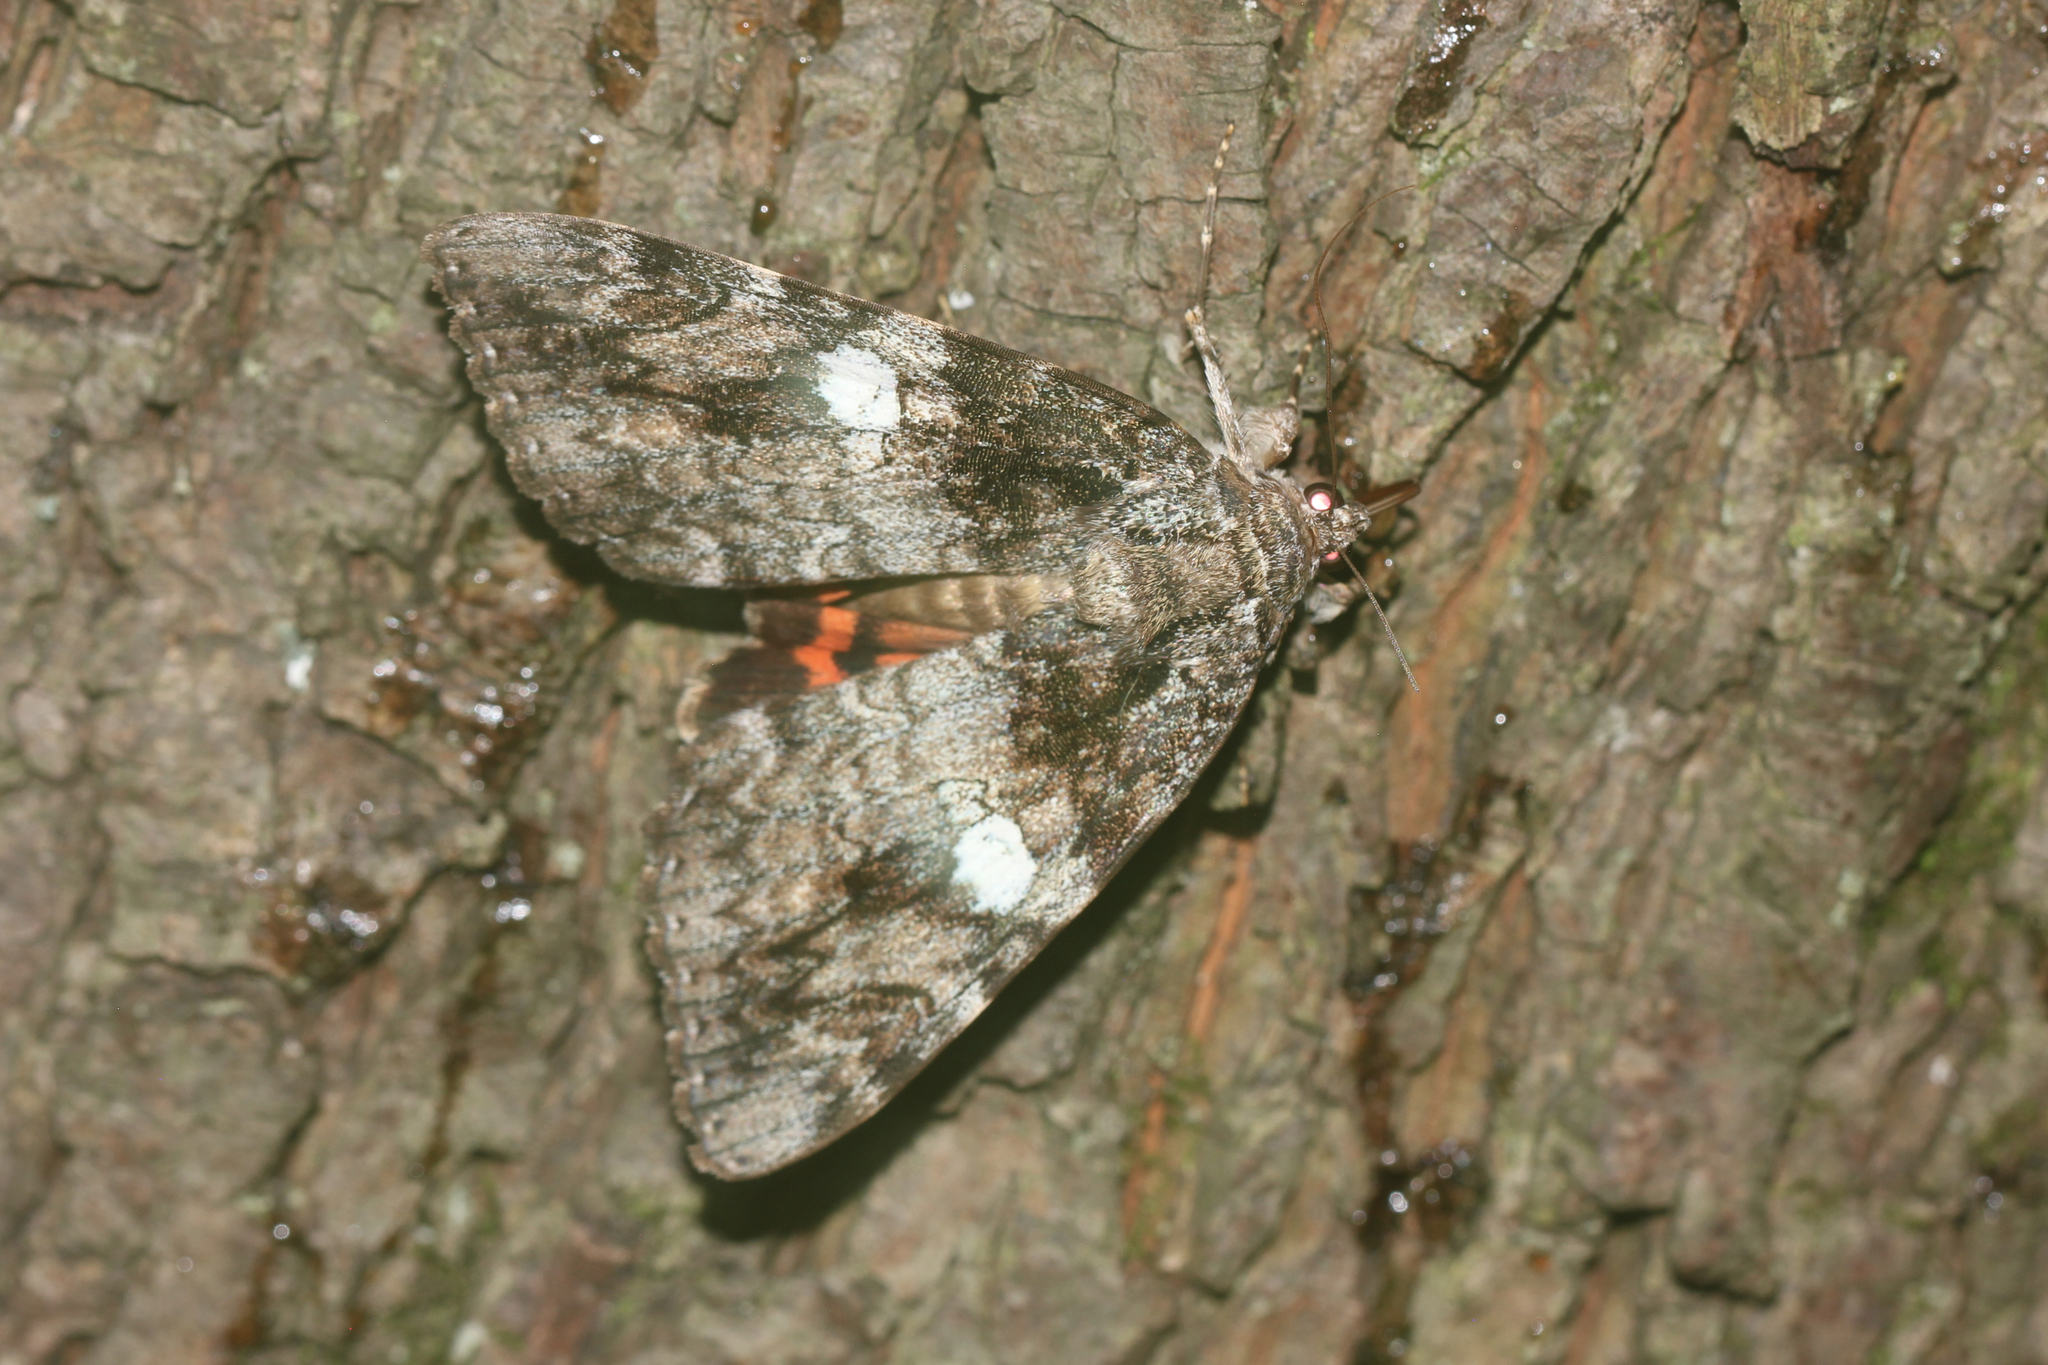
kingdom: Animalia
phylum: Arthropoda
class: Insecta
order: Lepidoptera
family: Erebidae
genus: Catocala
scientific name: Catocala ilia
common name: Ilia underwing
